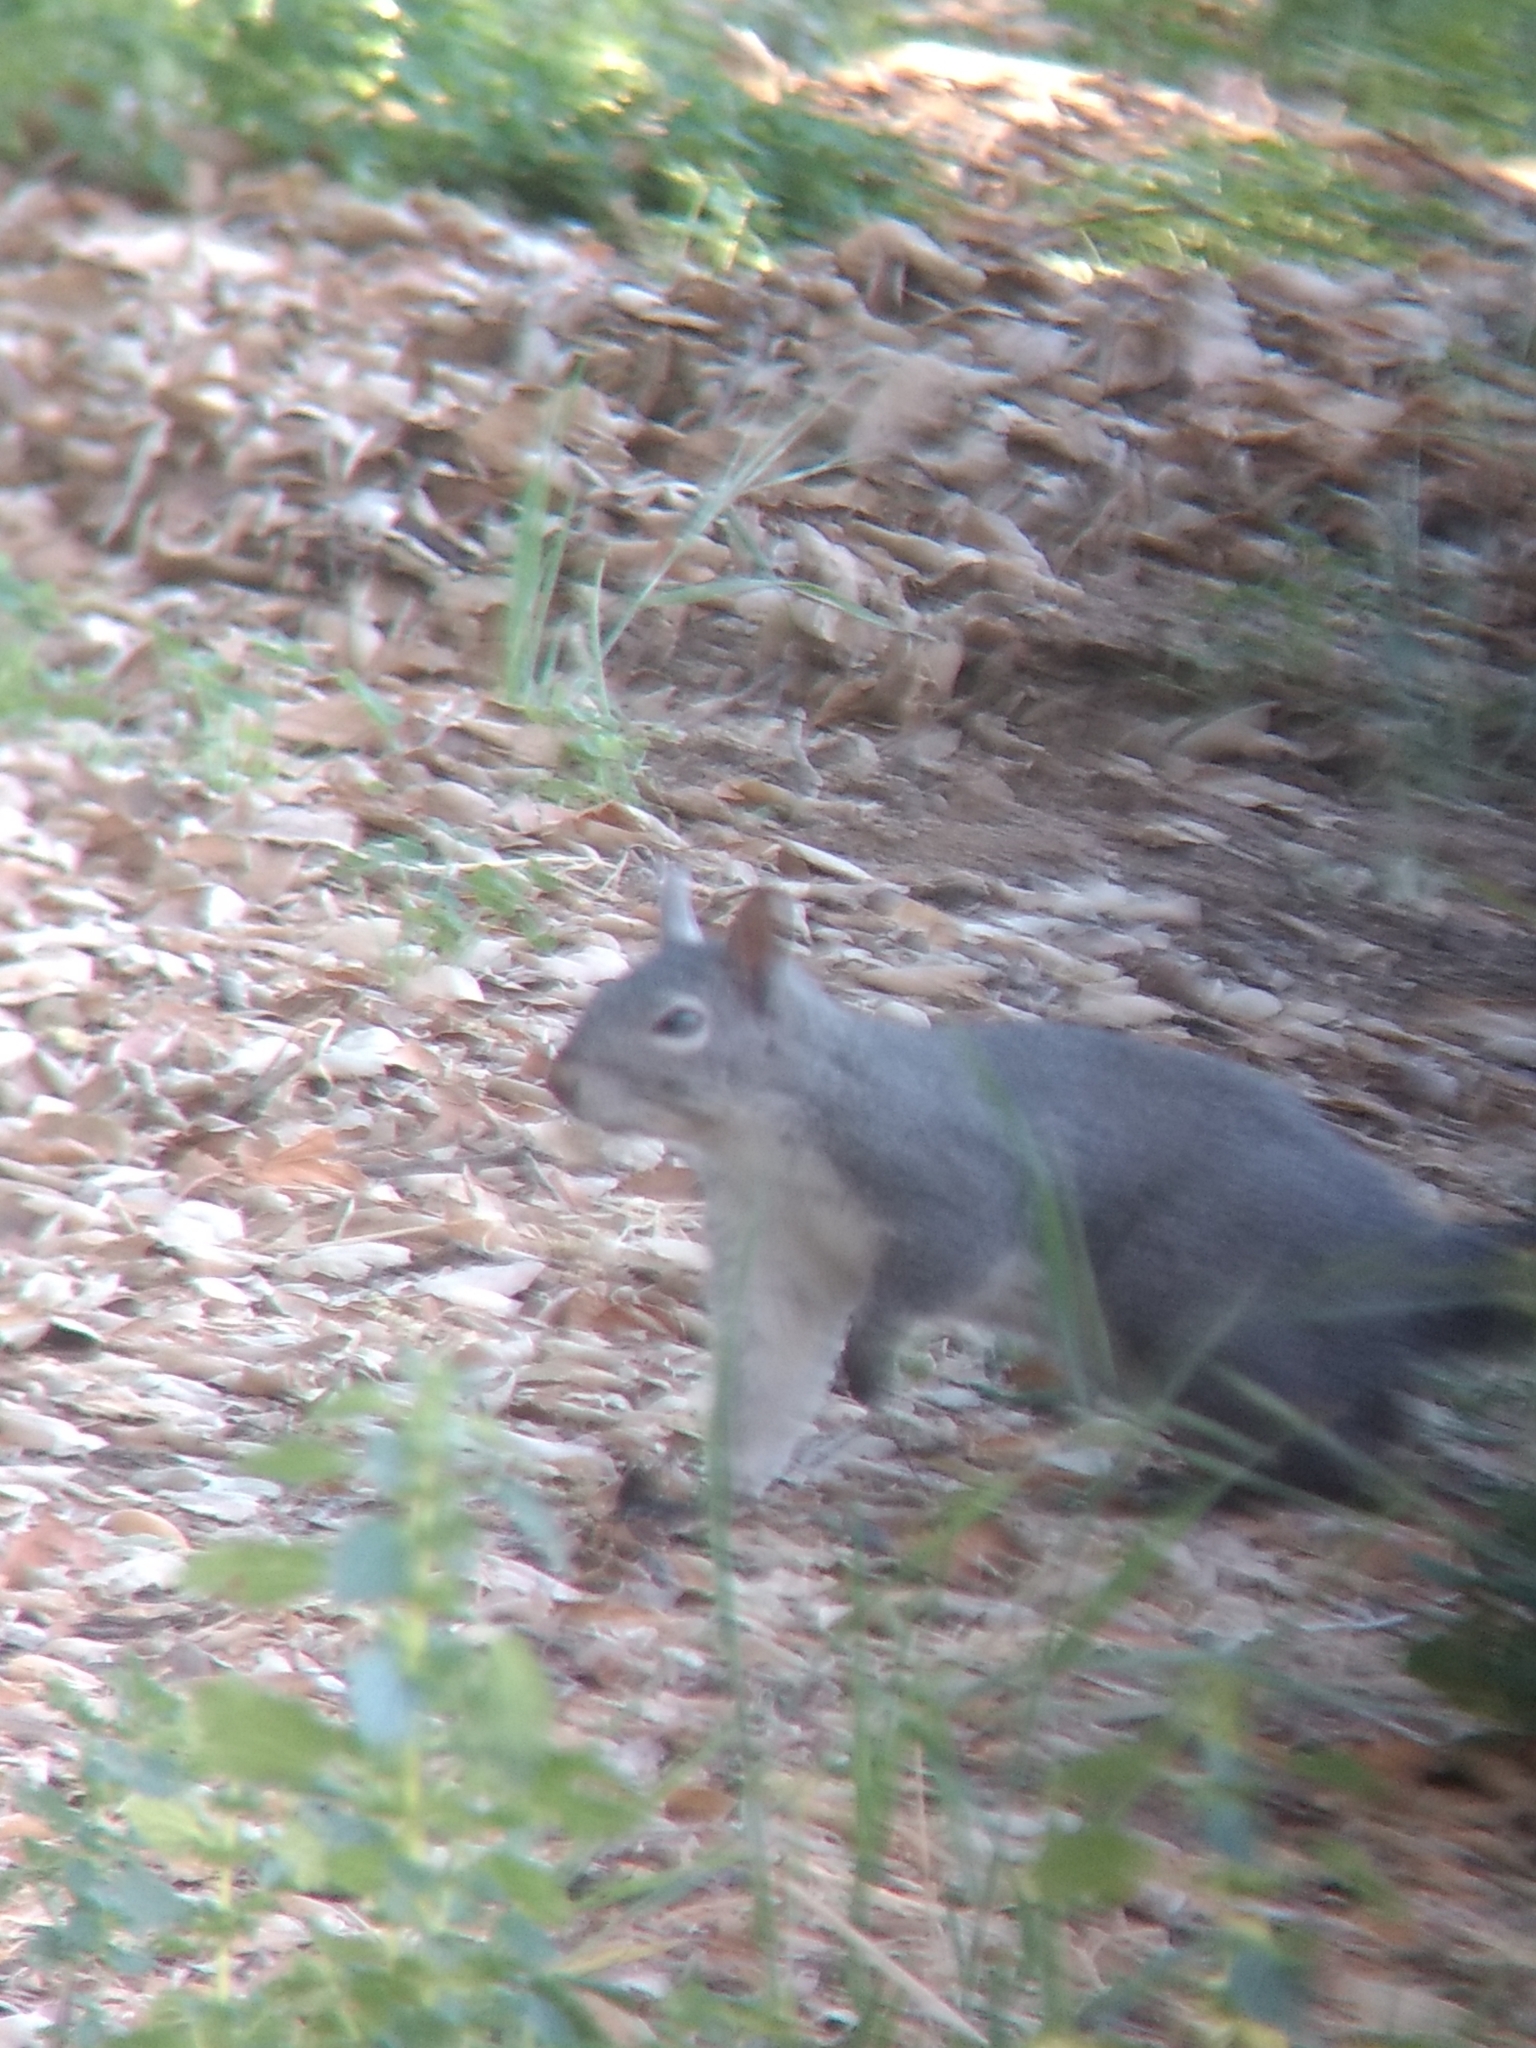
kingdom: Animalia
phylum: Chordata
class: Mammalia
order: Rodentia
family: Sciuridae
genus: Sciurus
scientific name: Sciurus griseus
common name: Western gray squirrel
